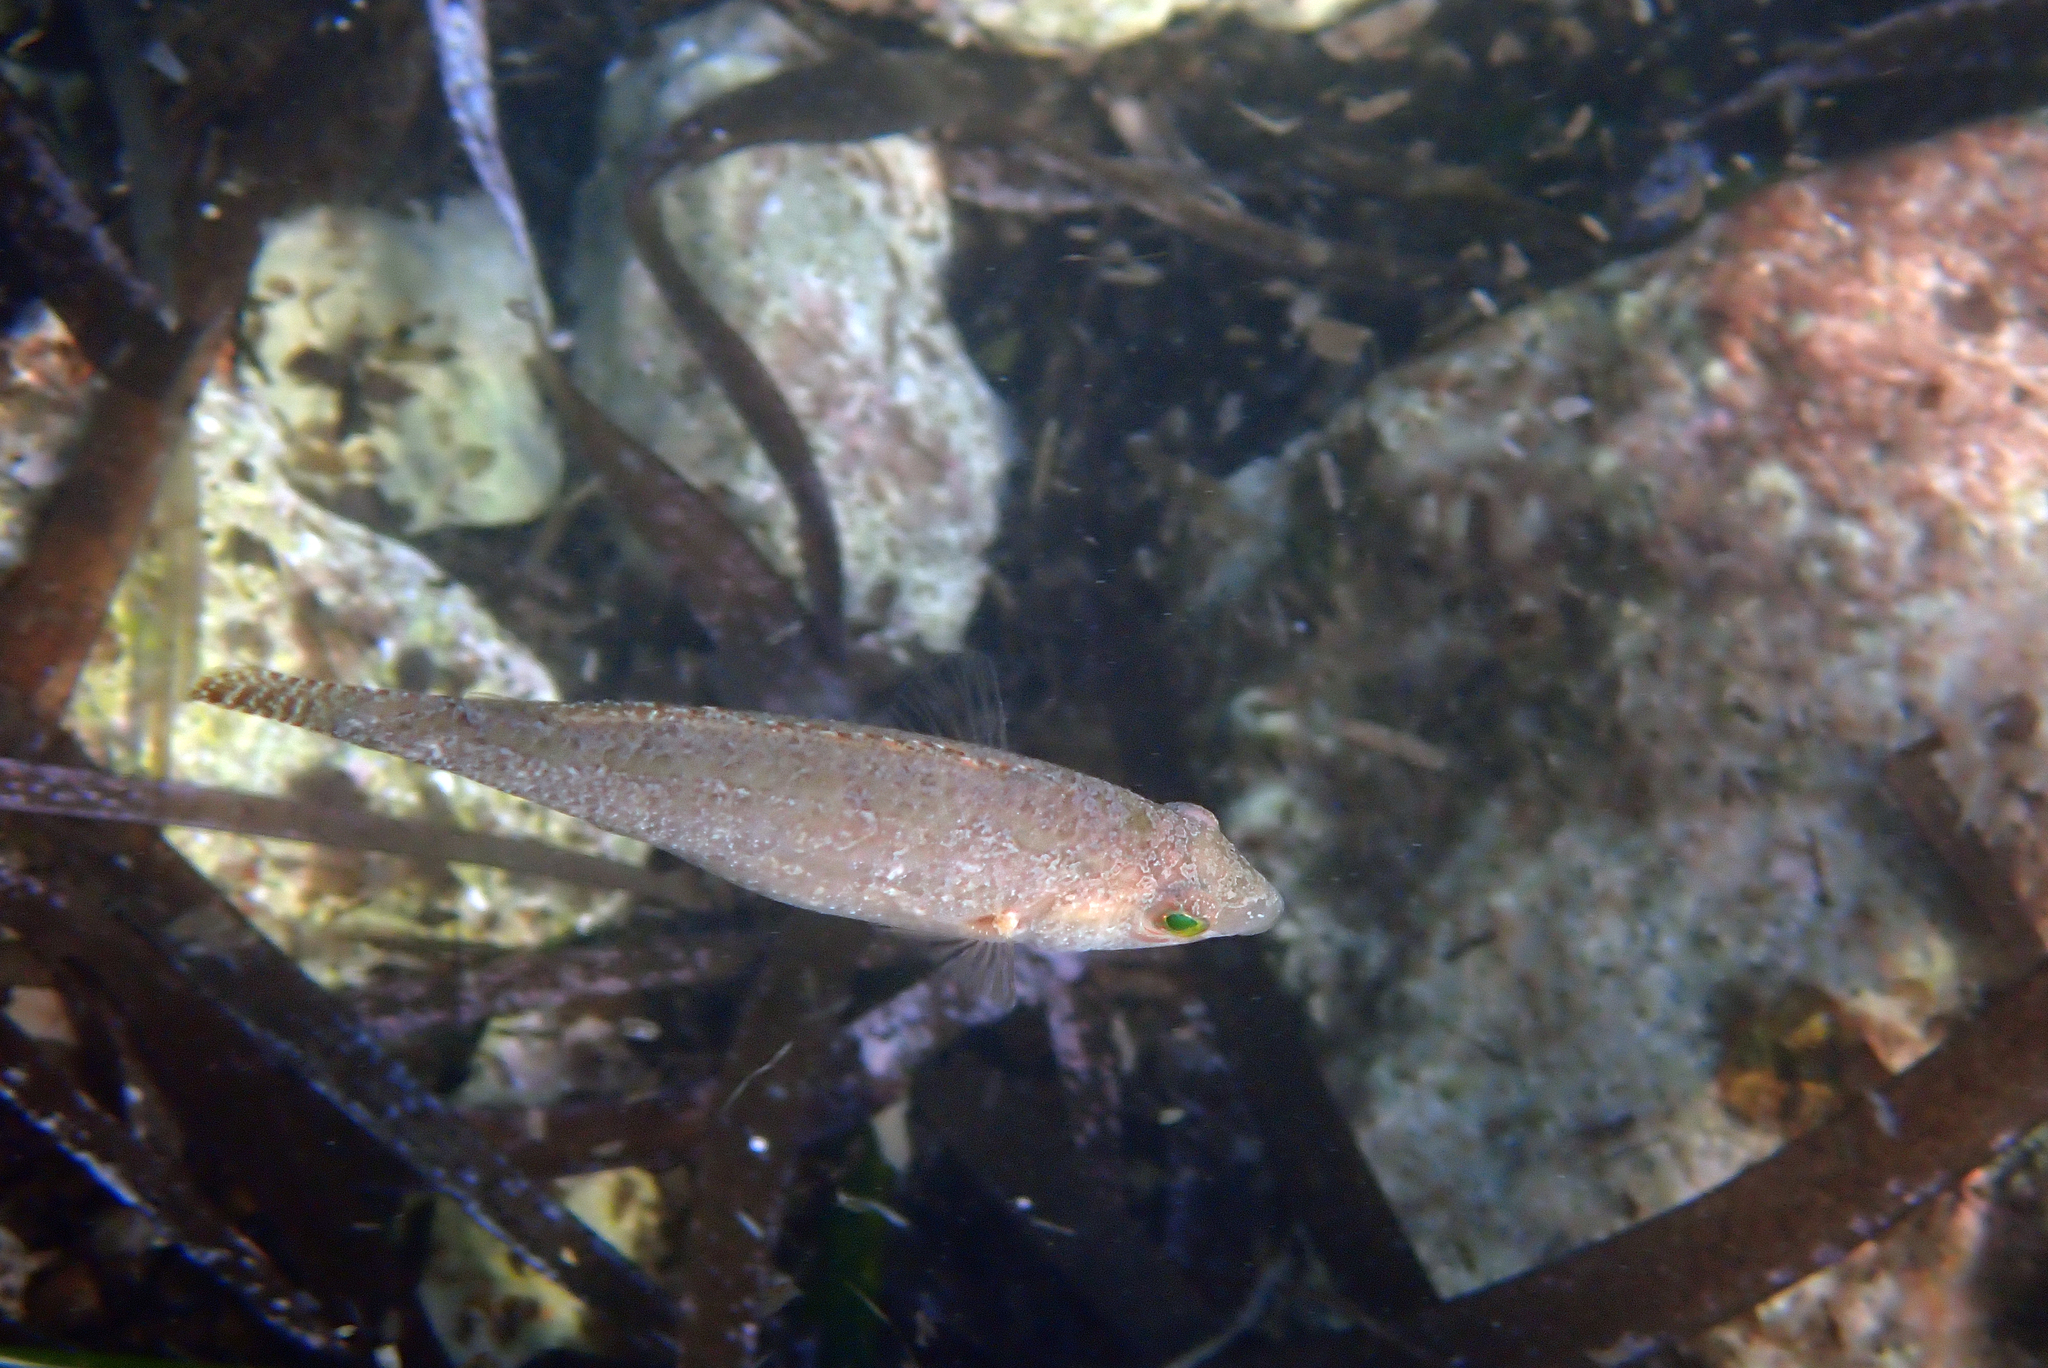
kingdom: Animalia
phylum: Chordata
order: Perciformes
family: Labridae
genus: Symphodus
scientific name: Symphodus cinereus
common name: Grey wrasse
